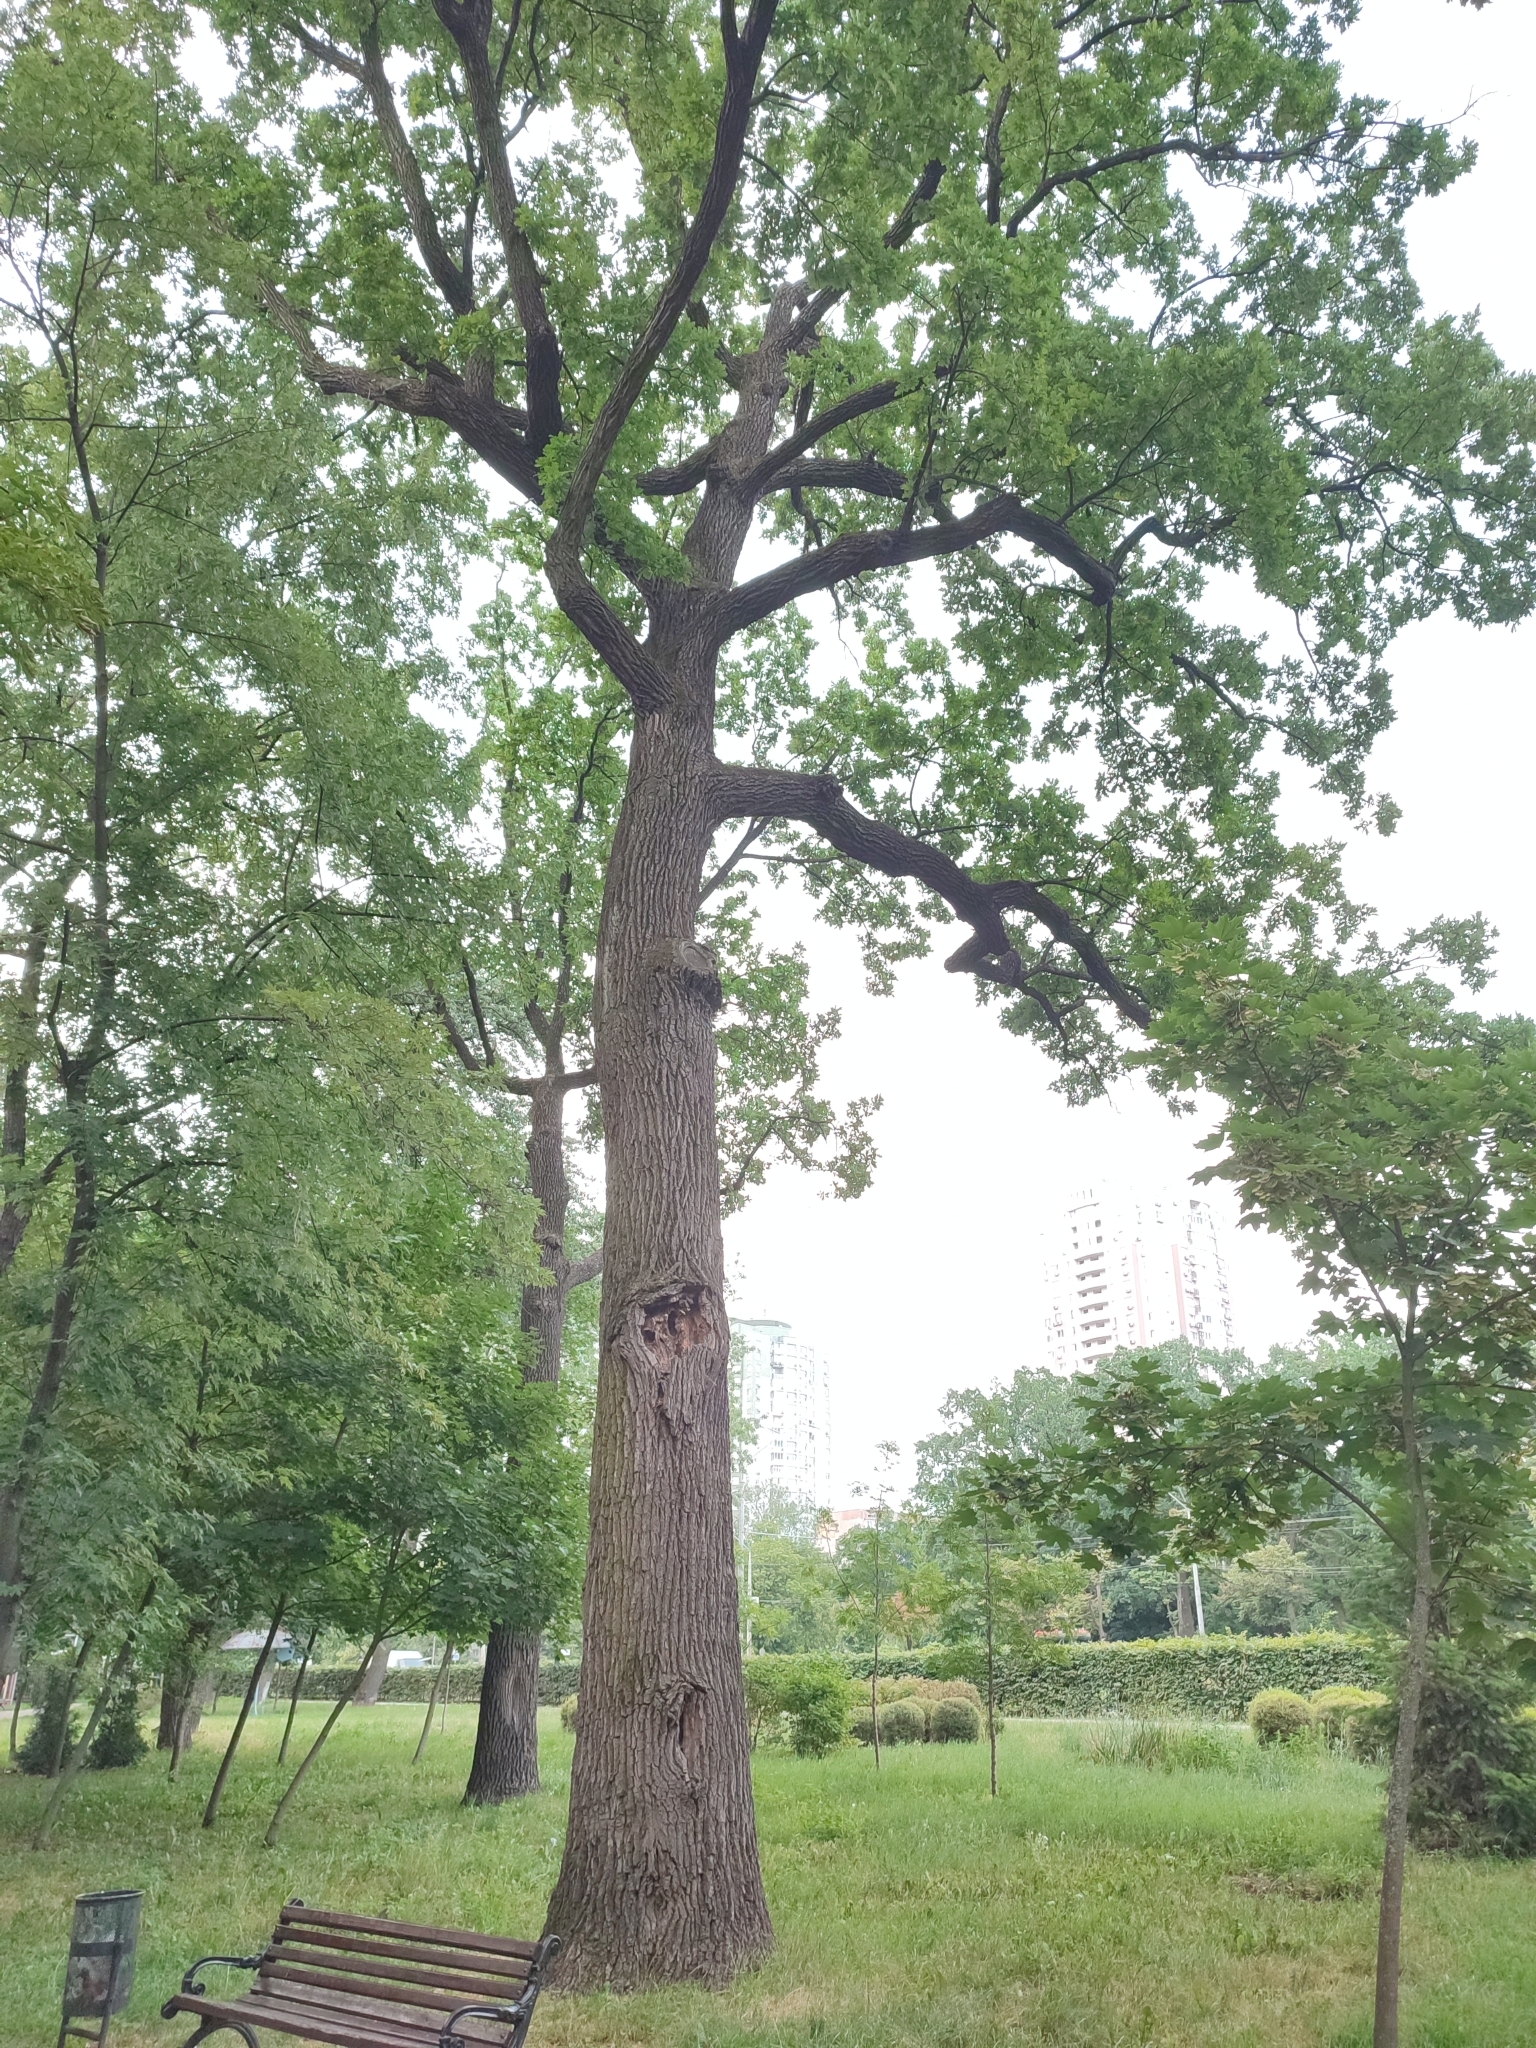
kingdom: Plantae
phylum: Tracheophyta
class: Magnoliopsida
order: Fagales
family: Fagaceae
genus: Quercus
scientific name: Quercus robur
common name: Pedunculate oak
